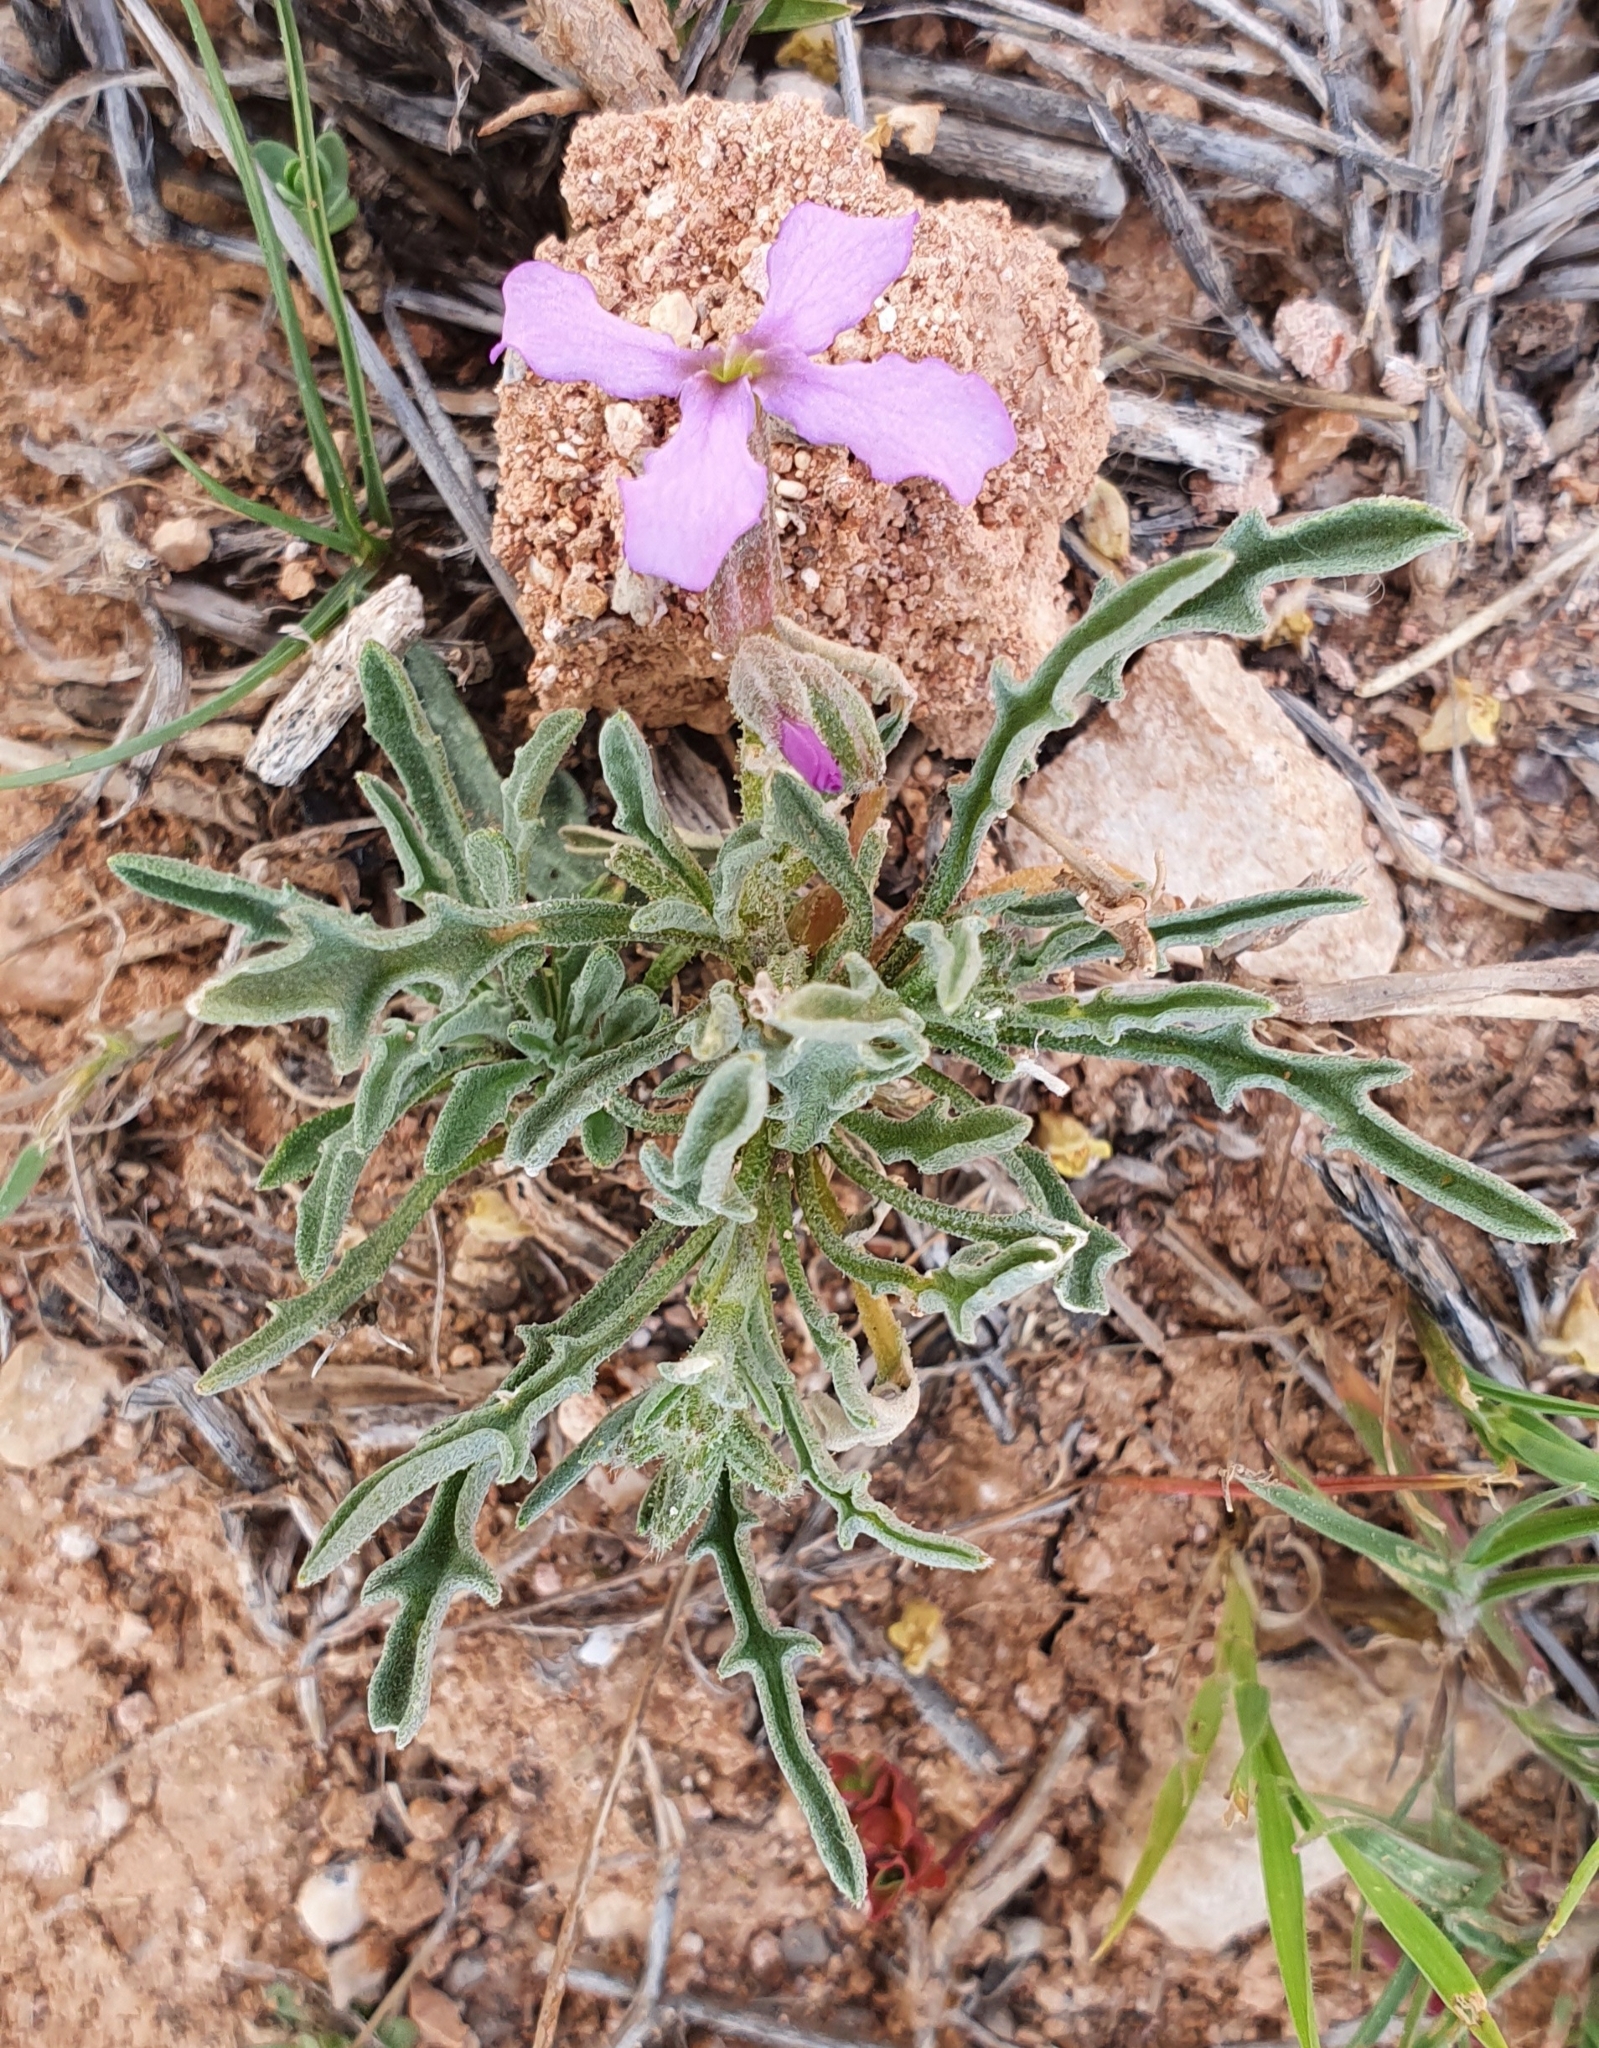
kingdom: Plantae
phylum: Tracheophyta
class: Magnoliopsida
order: Brassicales
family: Brassicaceae
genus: Matthiola
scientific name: Matthiola fruticulosa
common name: Sad stock
